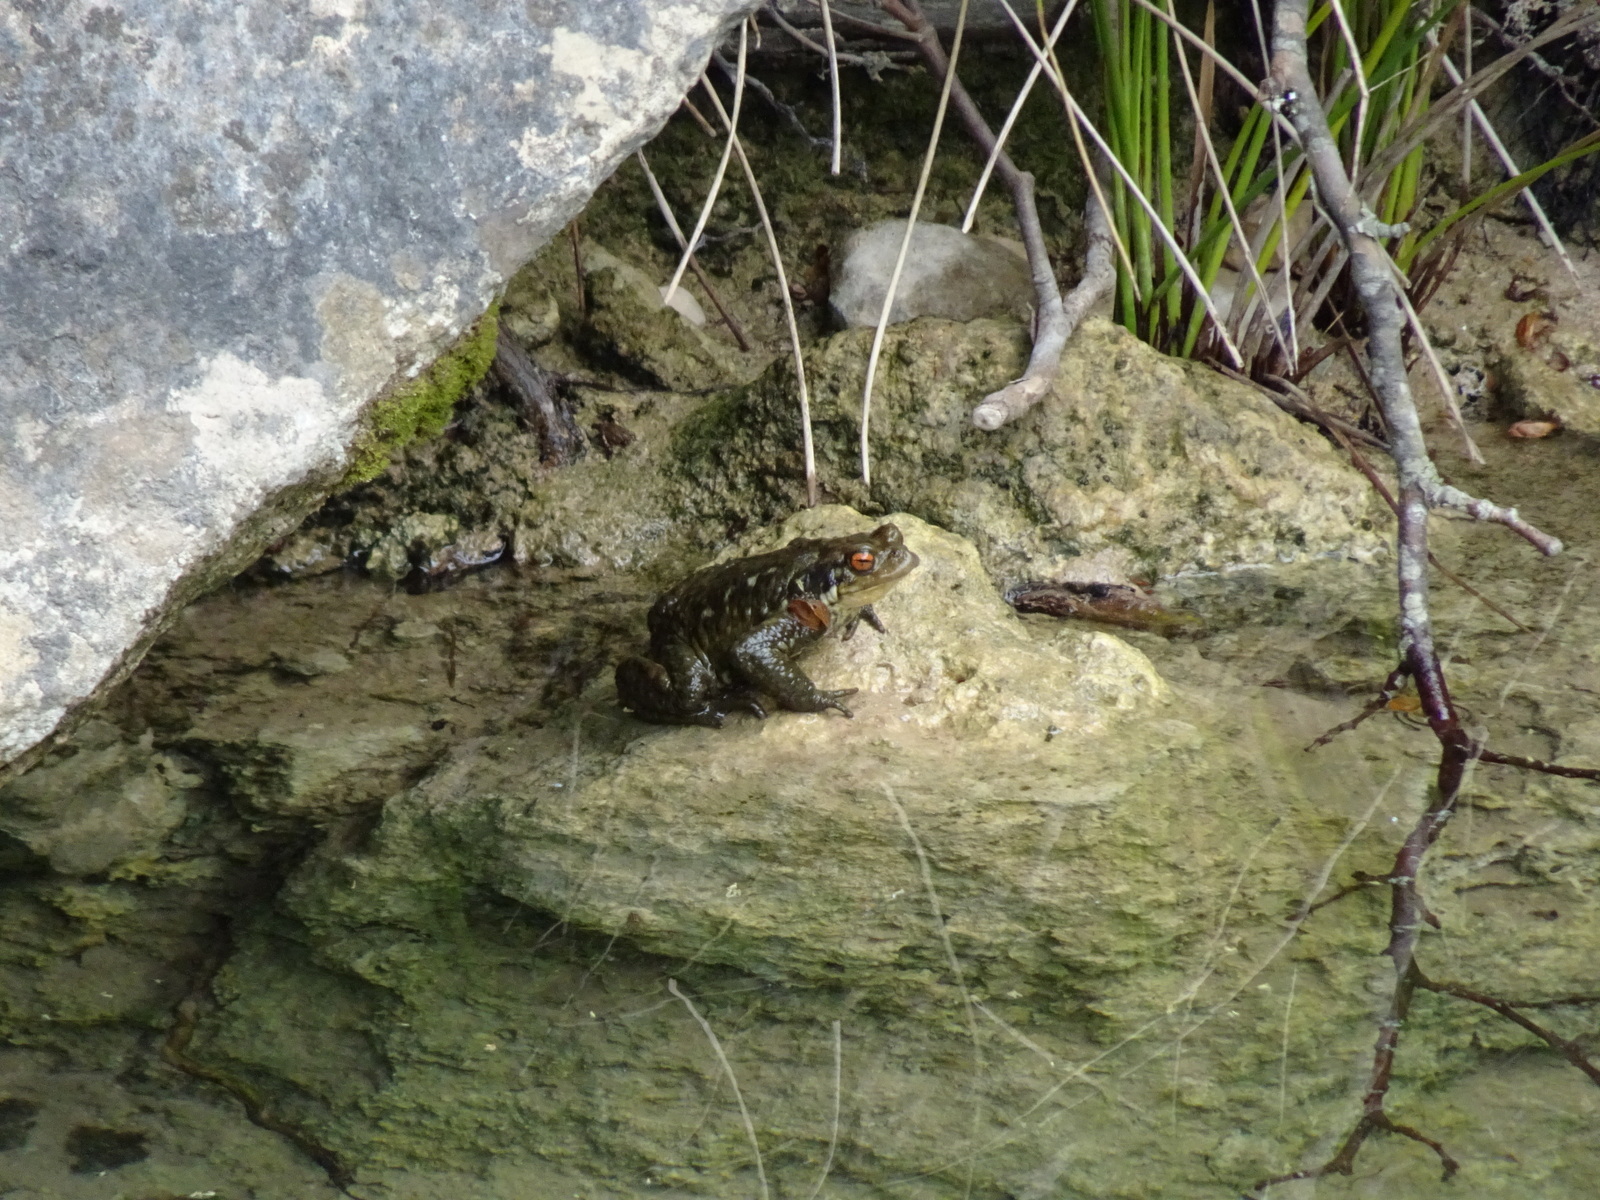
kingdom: Animalia
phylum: Chordata
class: Amphibia
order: Anura
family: Bufonidae
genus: Bufo
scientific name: Bufo spinosus
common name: Western common toad
